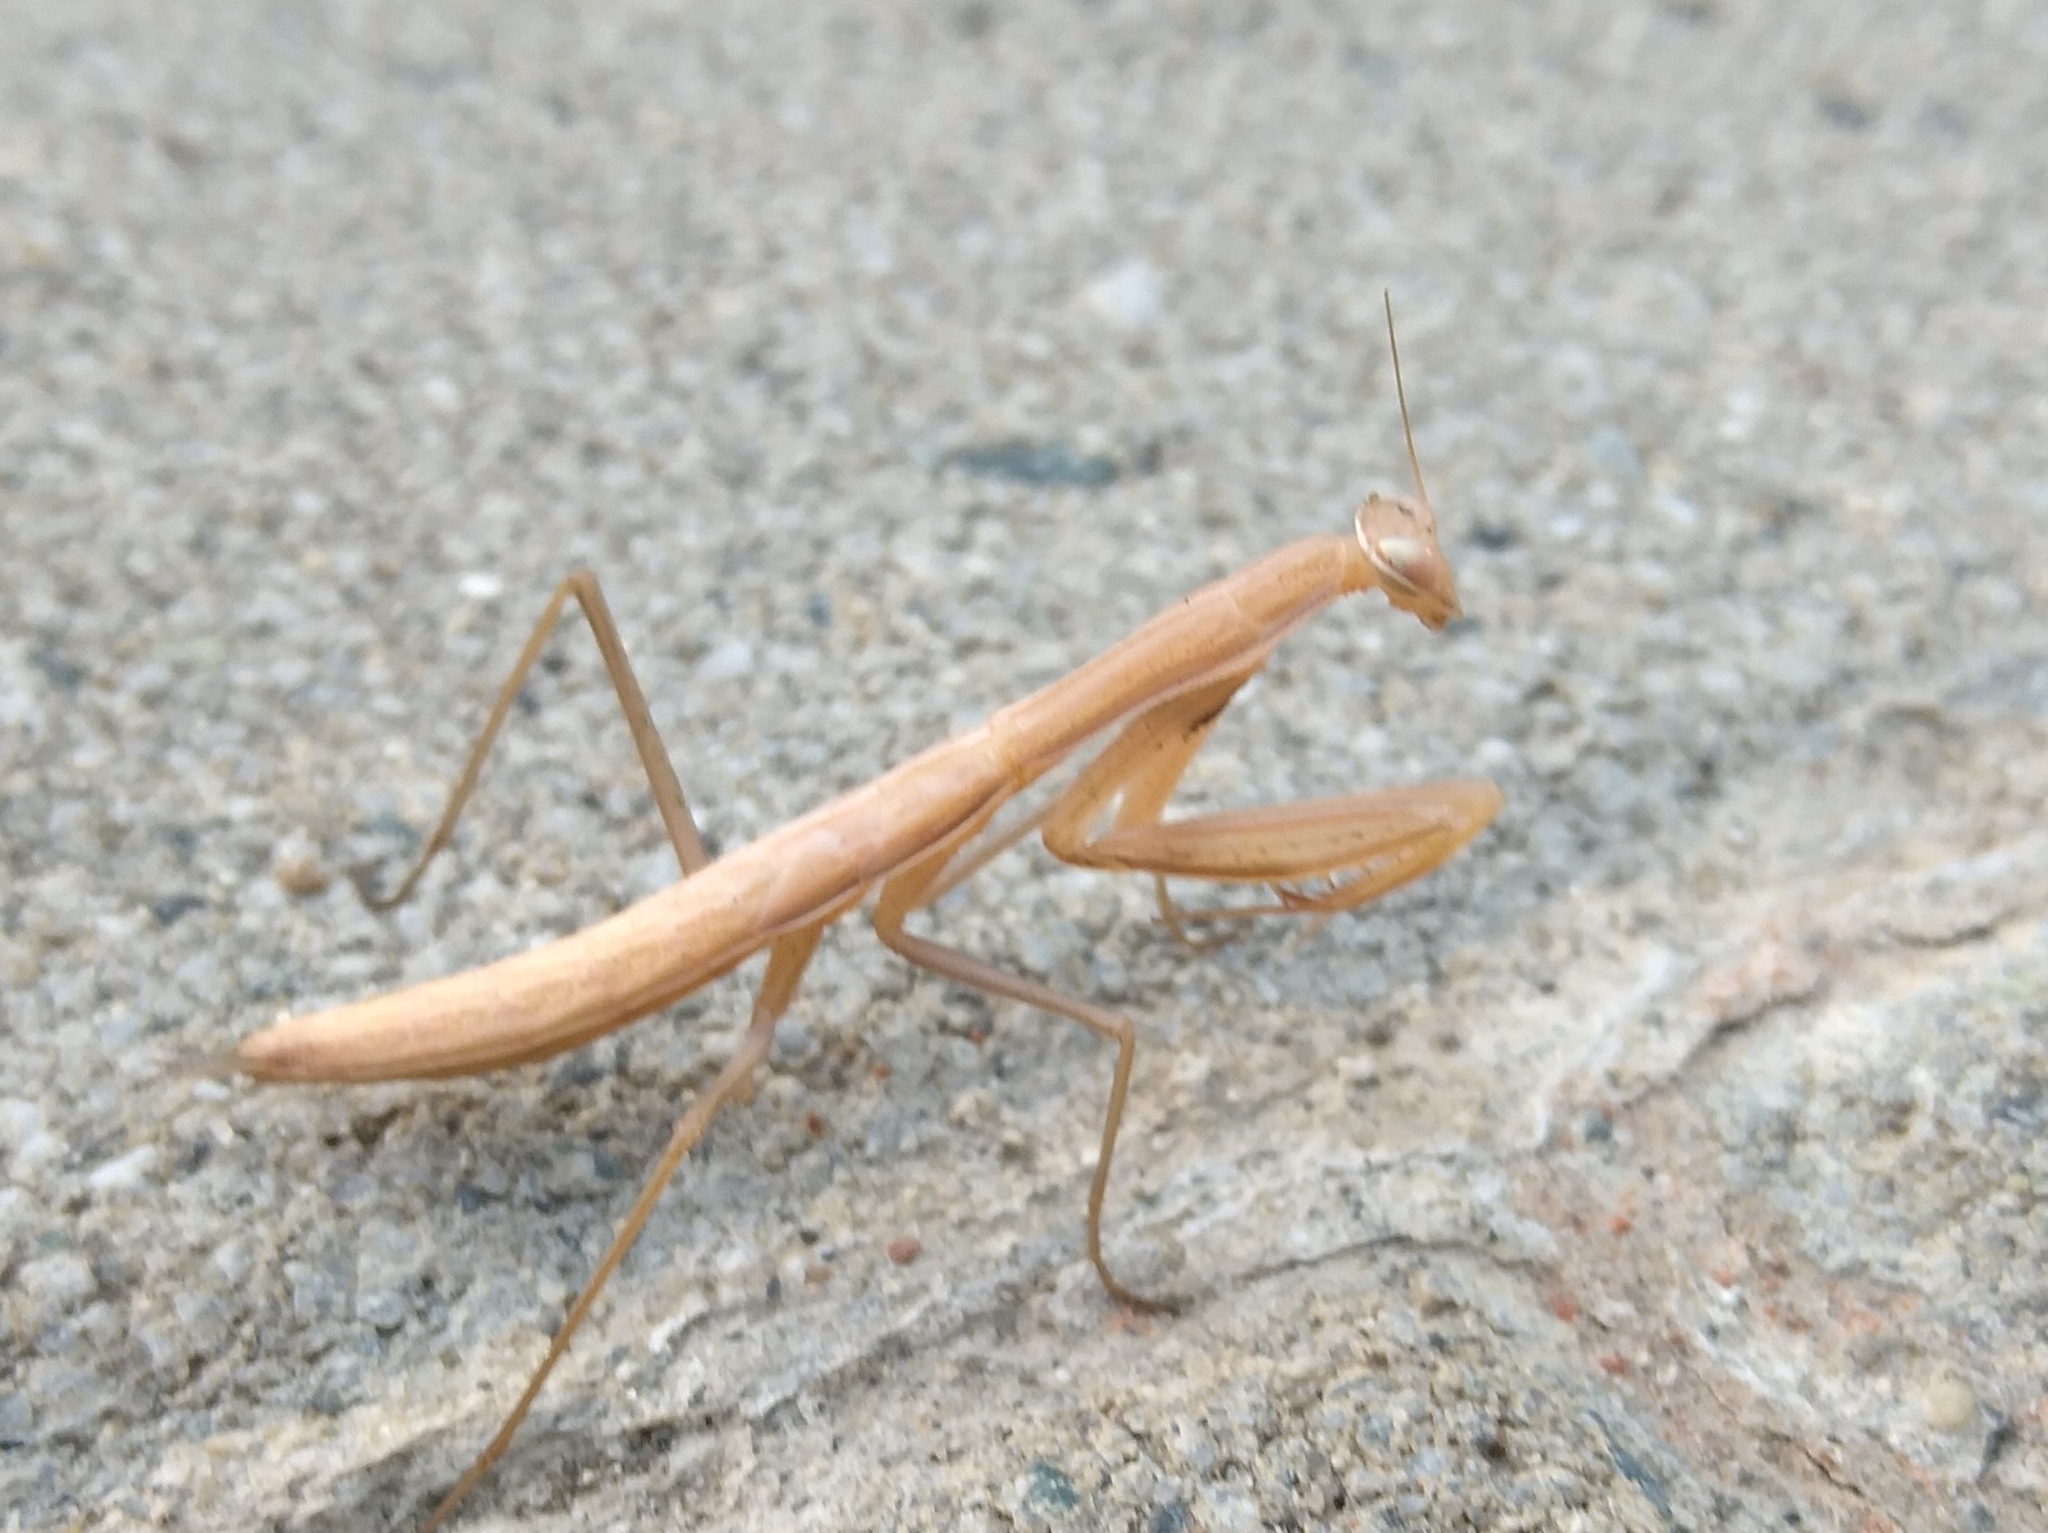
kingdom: Animalia
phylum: Arthropoda
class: Insecta
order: Mantodea
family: Mantidae
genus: Mantis
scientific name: Mantis religiosa
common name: Praying mantis
